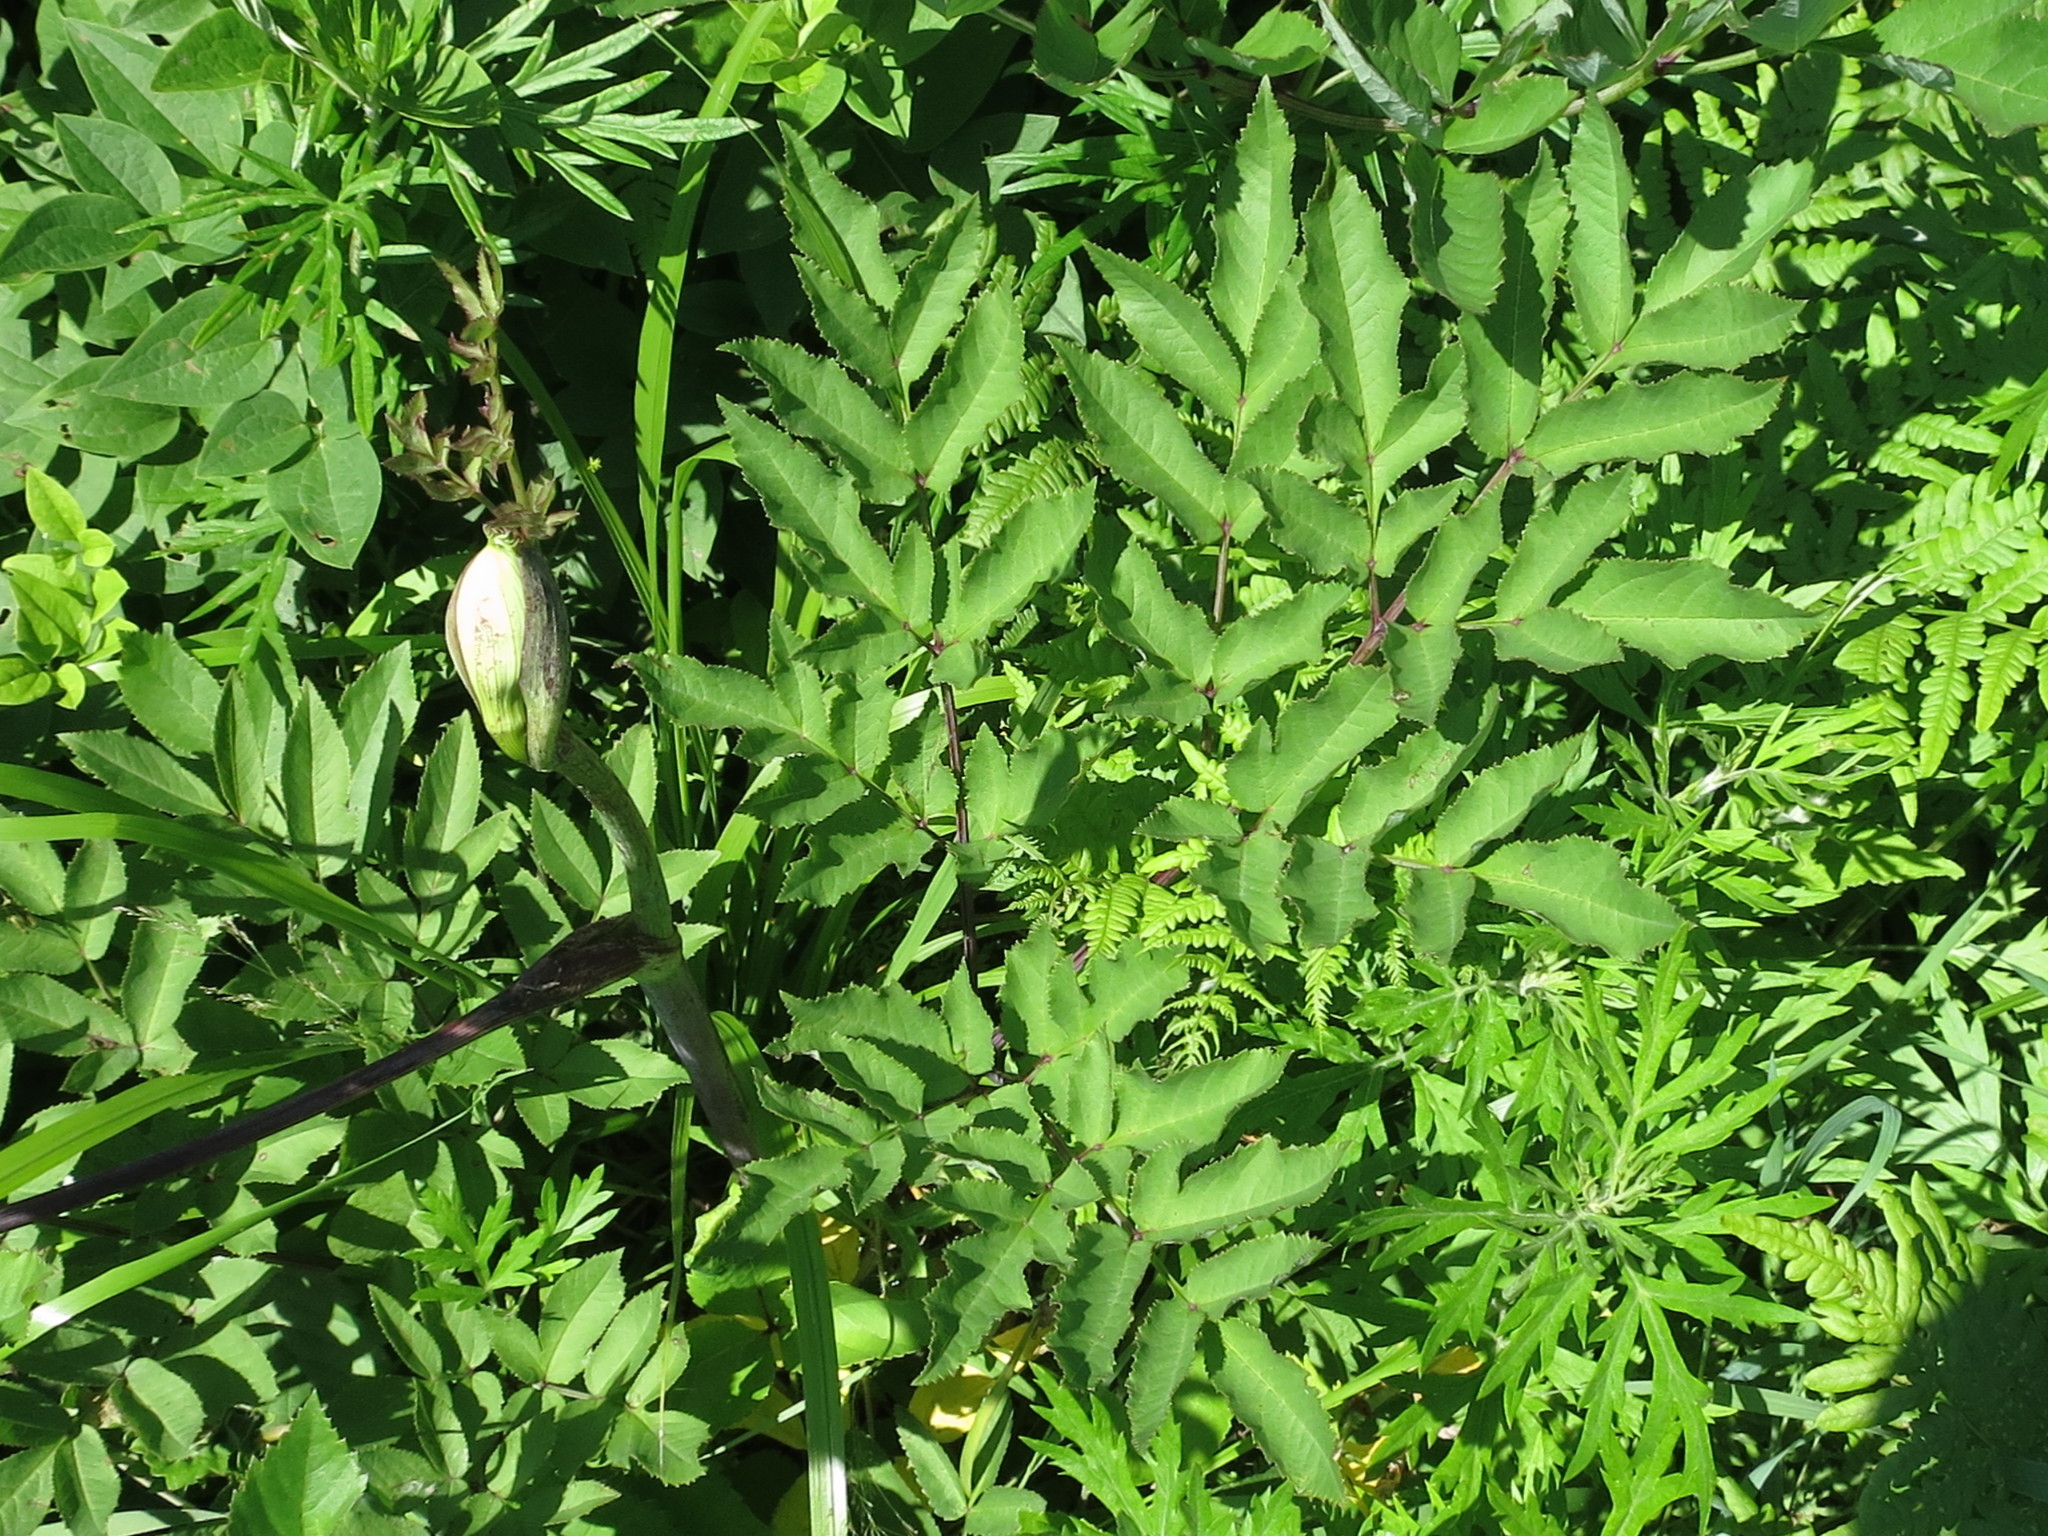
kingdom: Plantae
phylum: Tracheophyta
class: Magnoliopsida
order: Apiales
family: Apiaceae
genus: Angelica
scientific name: Angelica cincta
